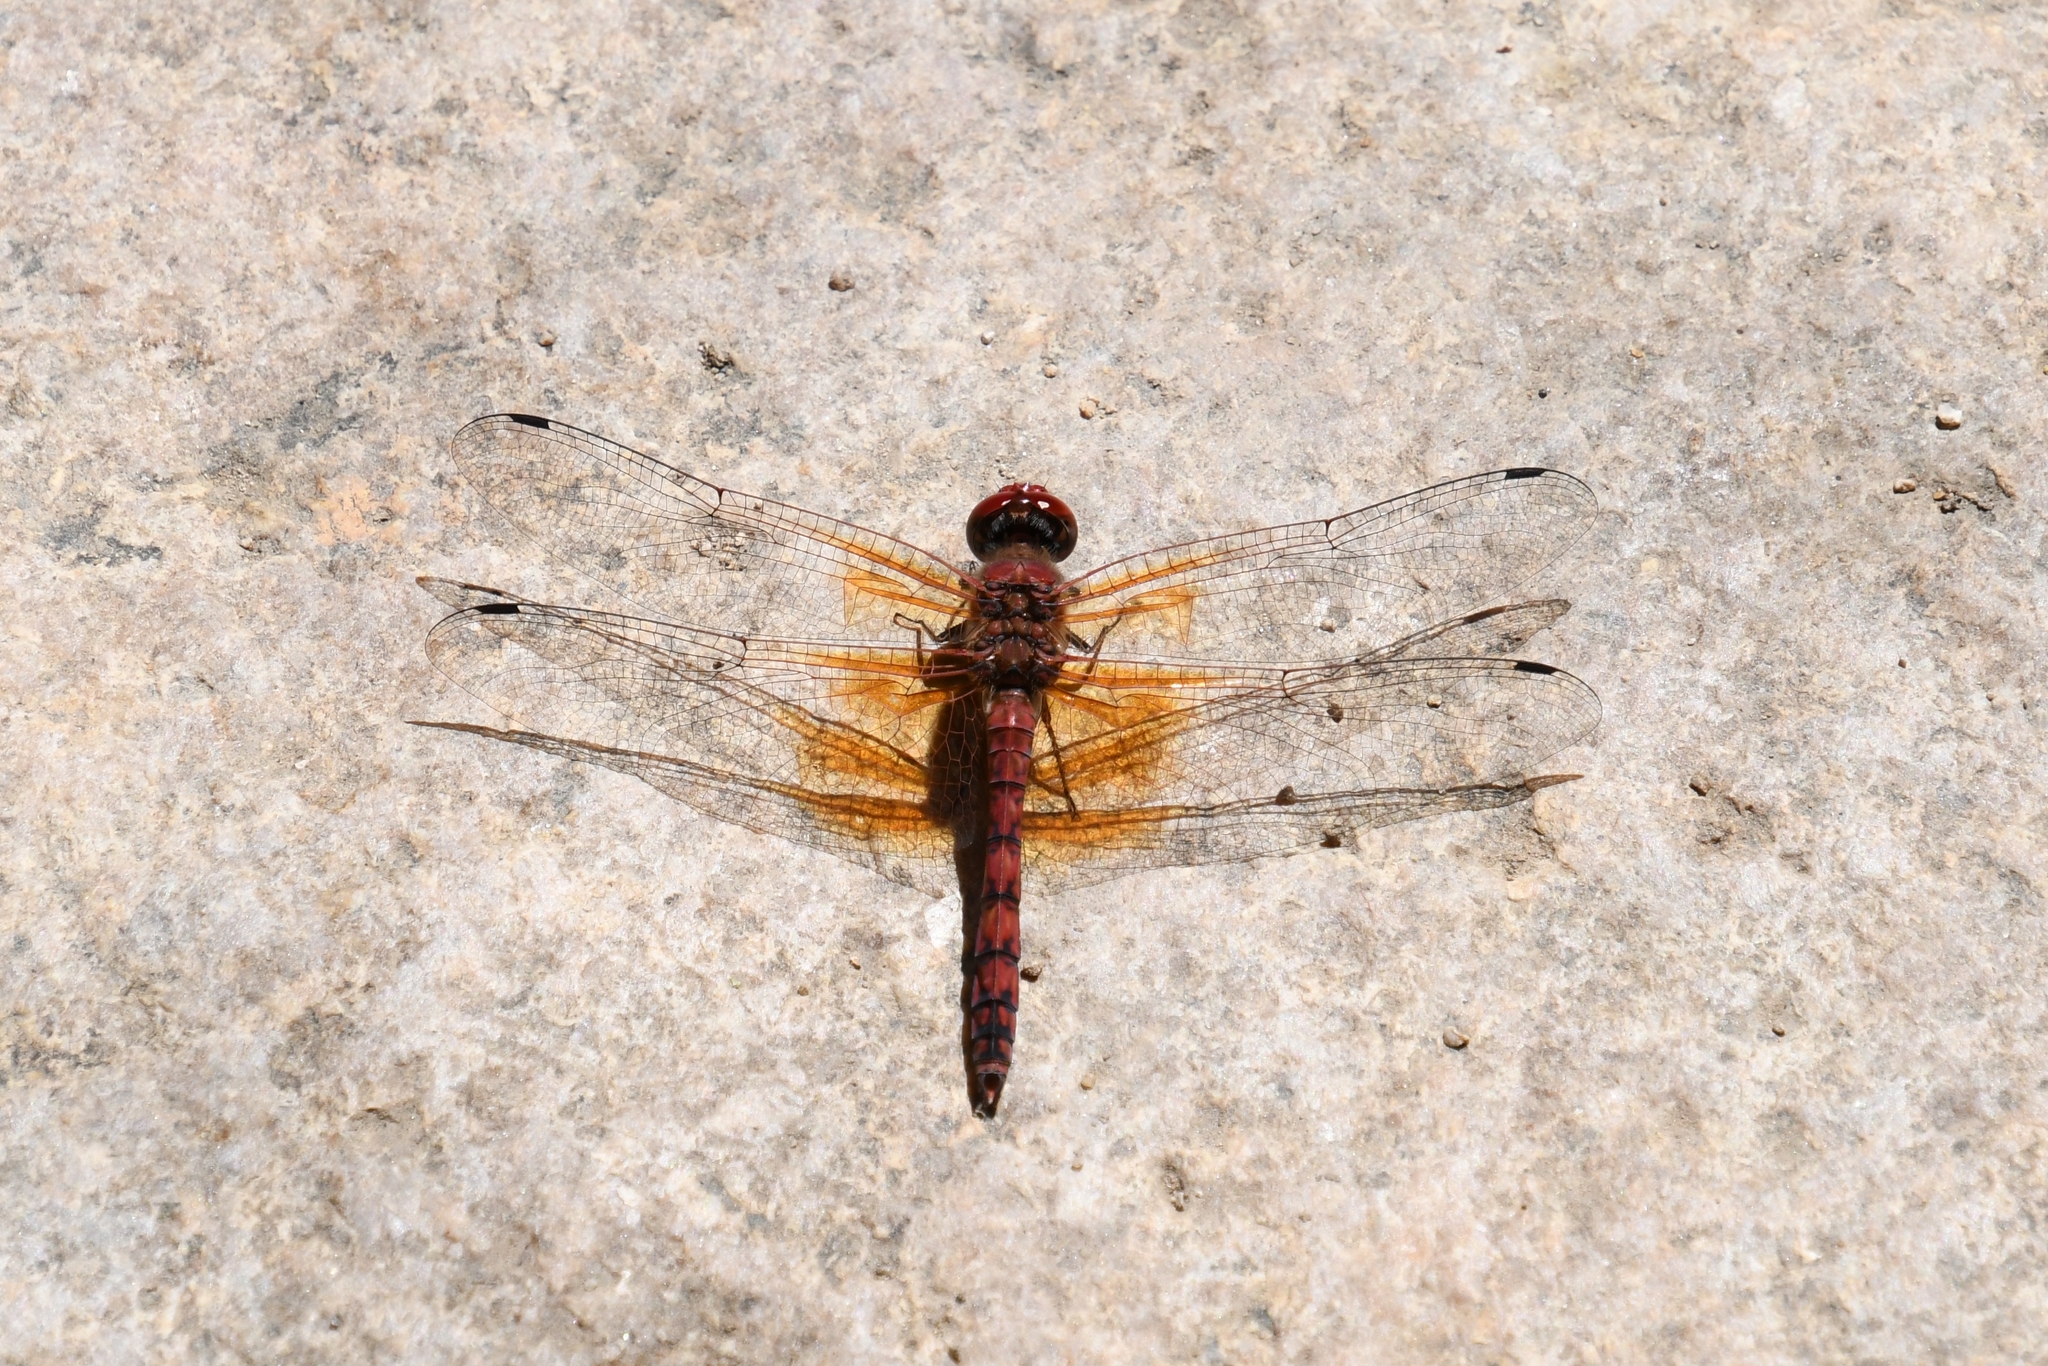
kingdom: Animalia
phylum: Arthropoda
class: Insecta
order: Odonata
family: Libellulidae
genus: Paltothemis
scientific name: Paltothemis lineatipes
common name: Red rock skimmer
